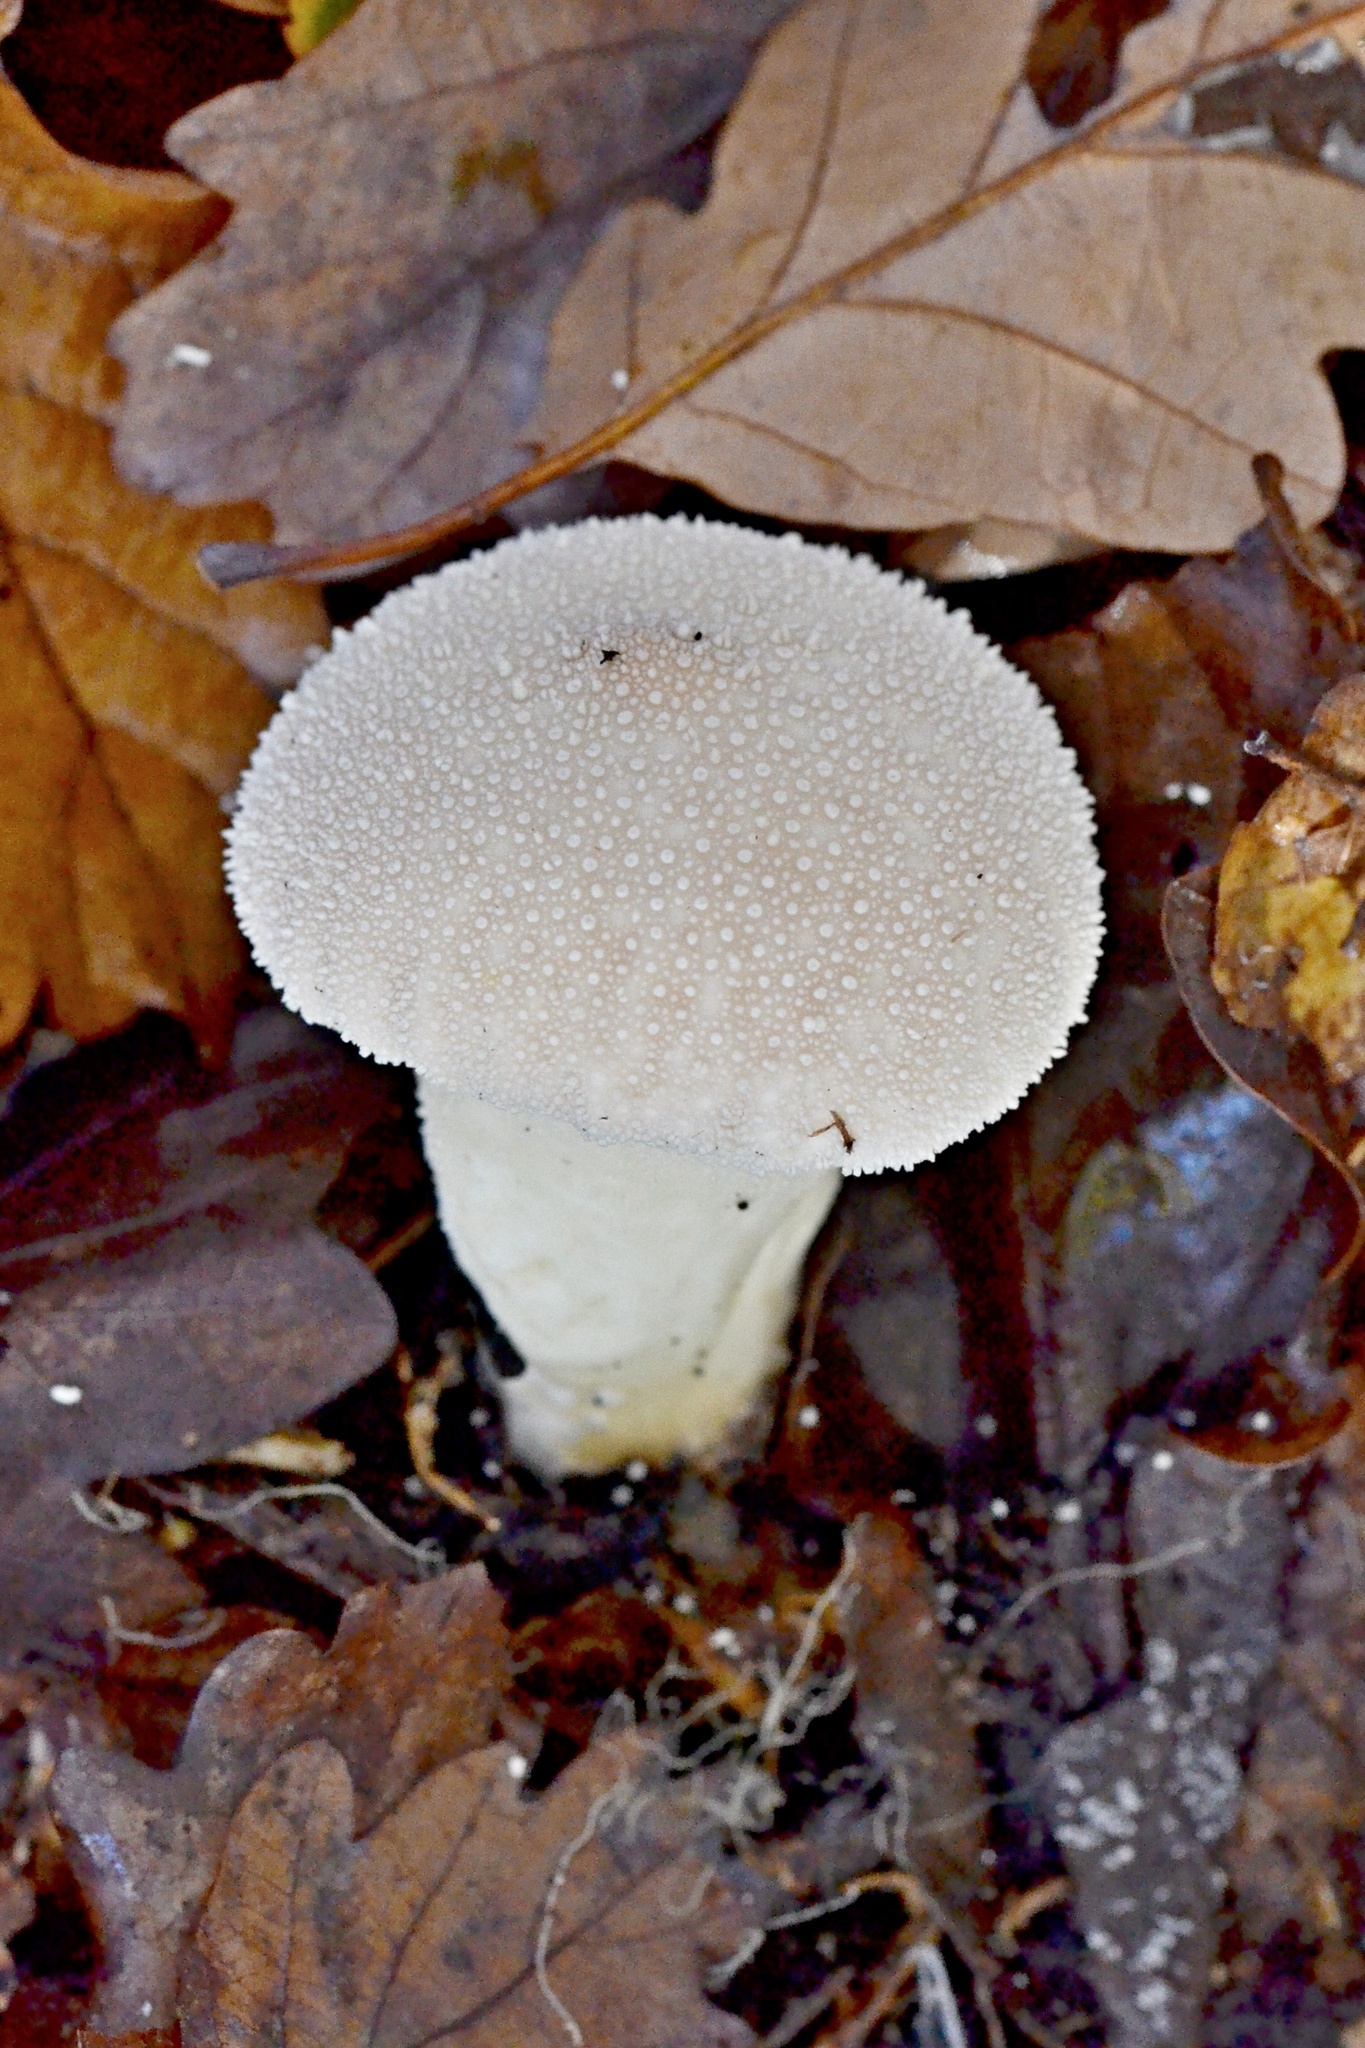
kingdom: Fungi
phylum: Basidiomycota
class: Agaricomycetes
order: Agaricales
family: Lycoperdaceae
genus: Lycoperdon
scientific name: Lycoperdon perlatum
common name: Common puffball
